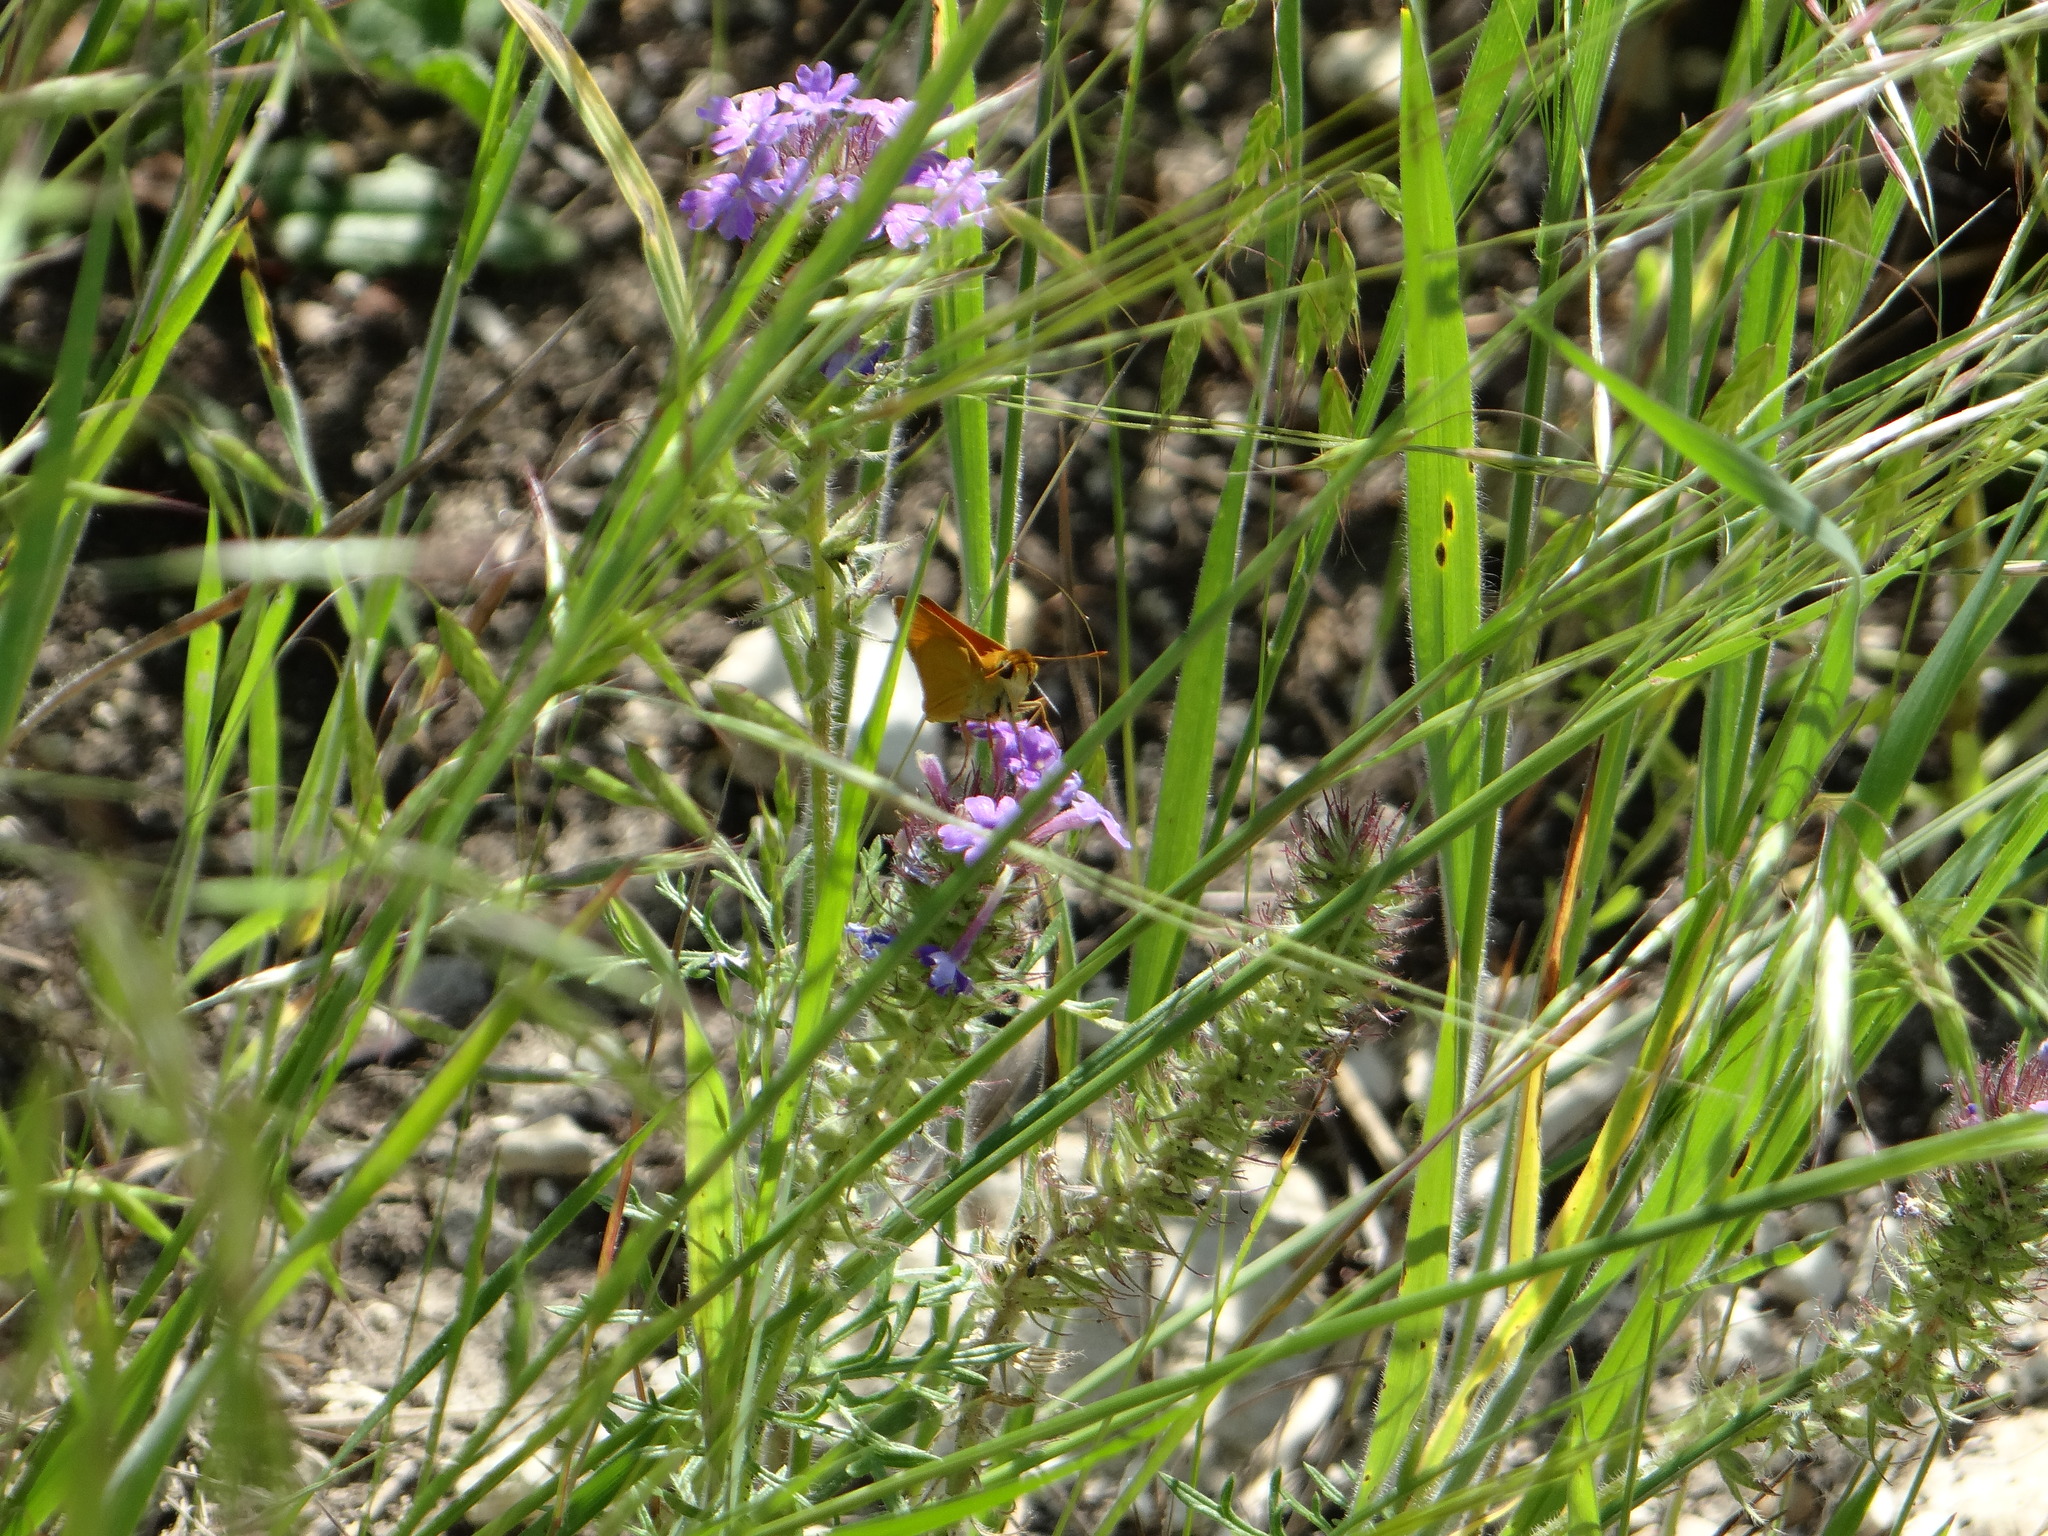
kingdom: Animalia
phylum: Arthropoda
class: Insecta
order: Lepidoptera
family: Hesperiidae
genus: Atrytone
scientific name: Atrytone delaware
